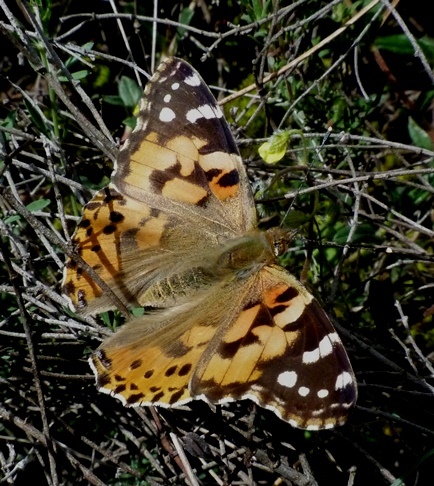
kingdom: Animalia
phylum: Arthropoda
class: Insecta
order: Lepidoptera
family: Nymphalidae
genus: Vanessa
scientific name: Vanessa cardui
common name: Painted lady
